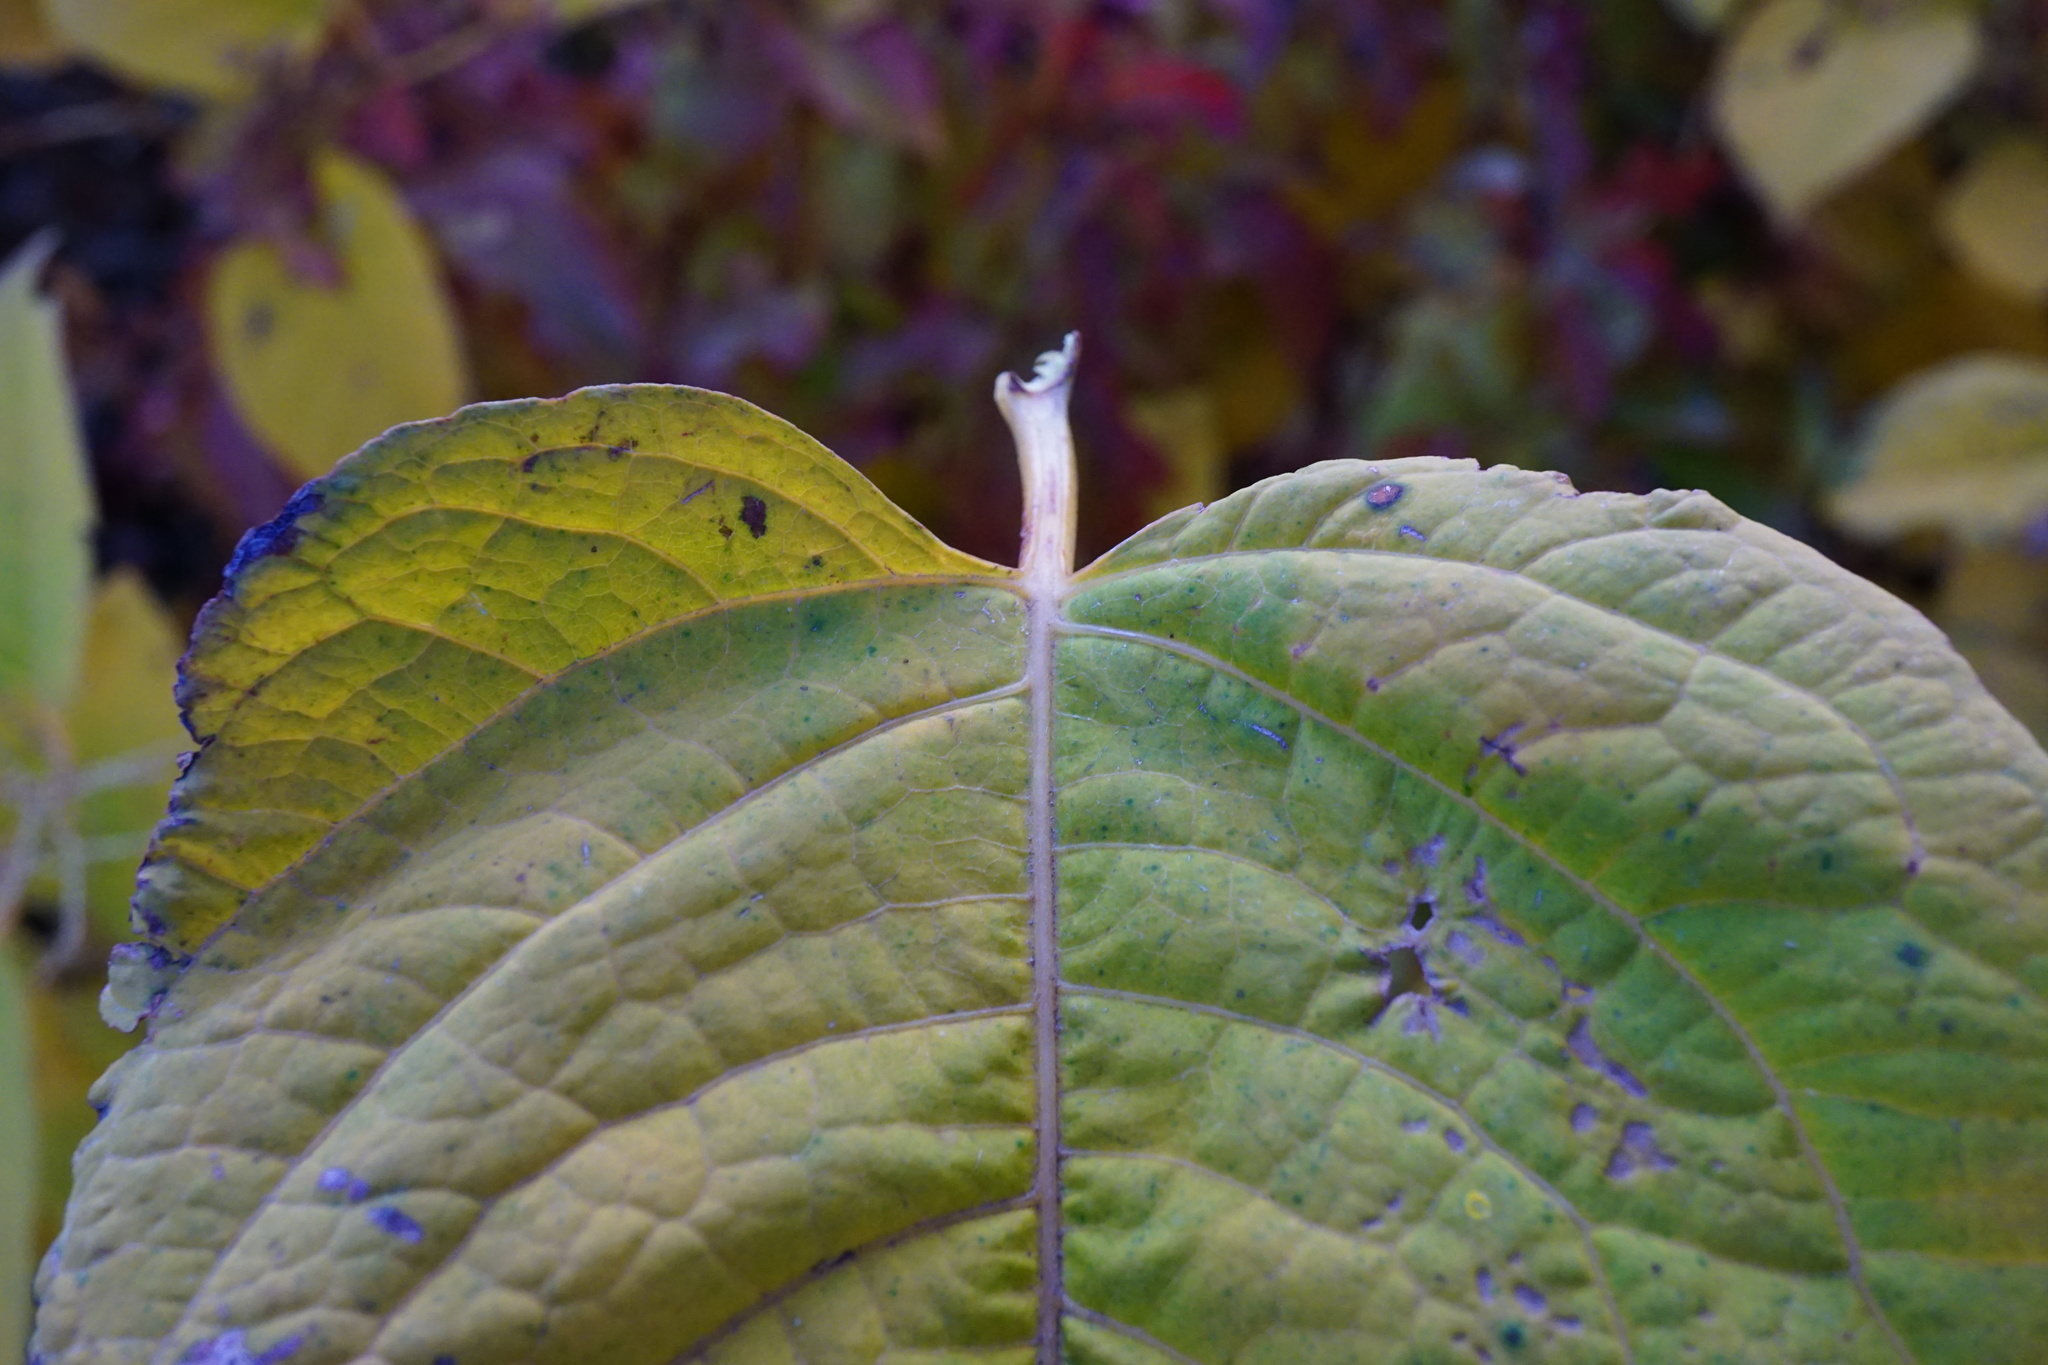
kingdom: Plantae
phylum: Tracheophyta
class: Magnoliopsida
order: Caryophyllales
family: Polygonaceae
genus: Reynoutria
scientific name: Reynoutria bohemica
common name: Bohemian knotweed
